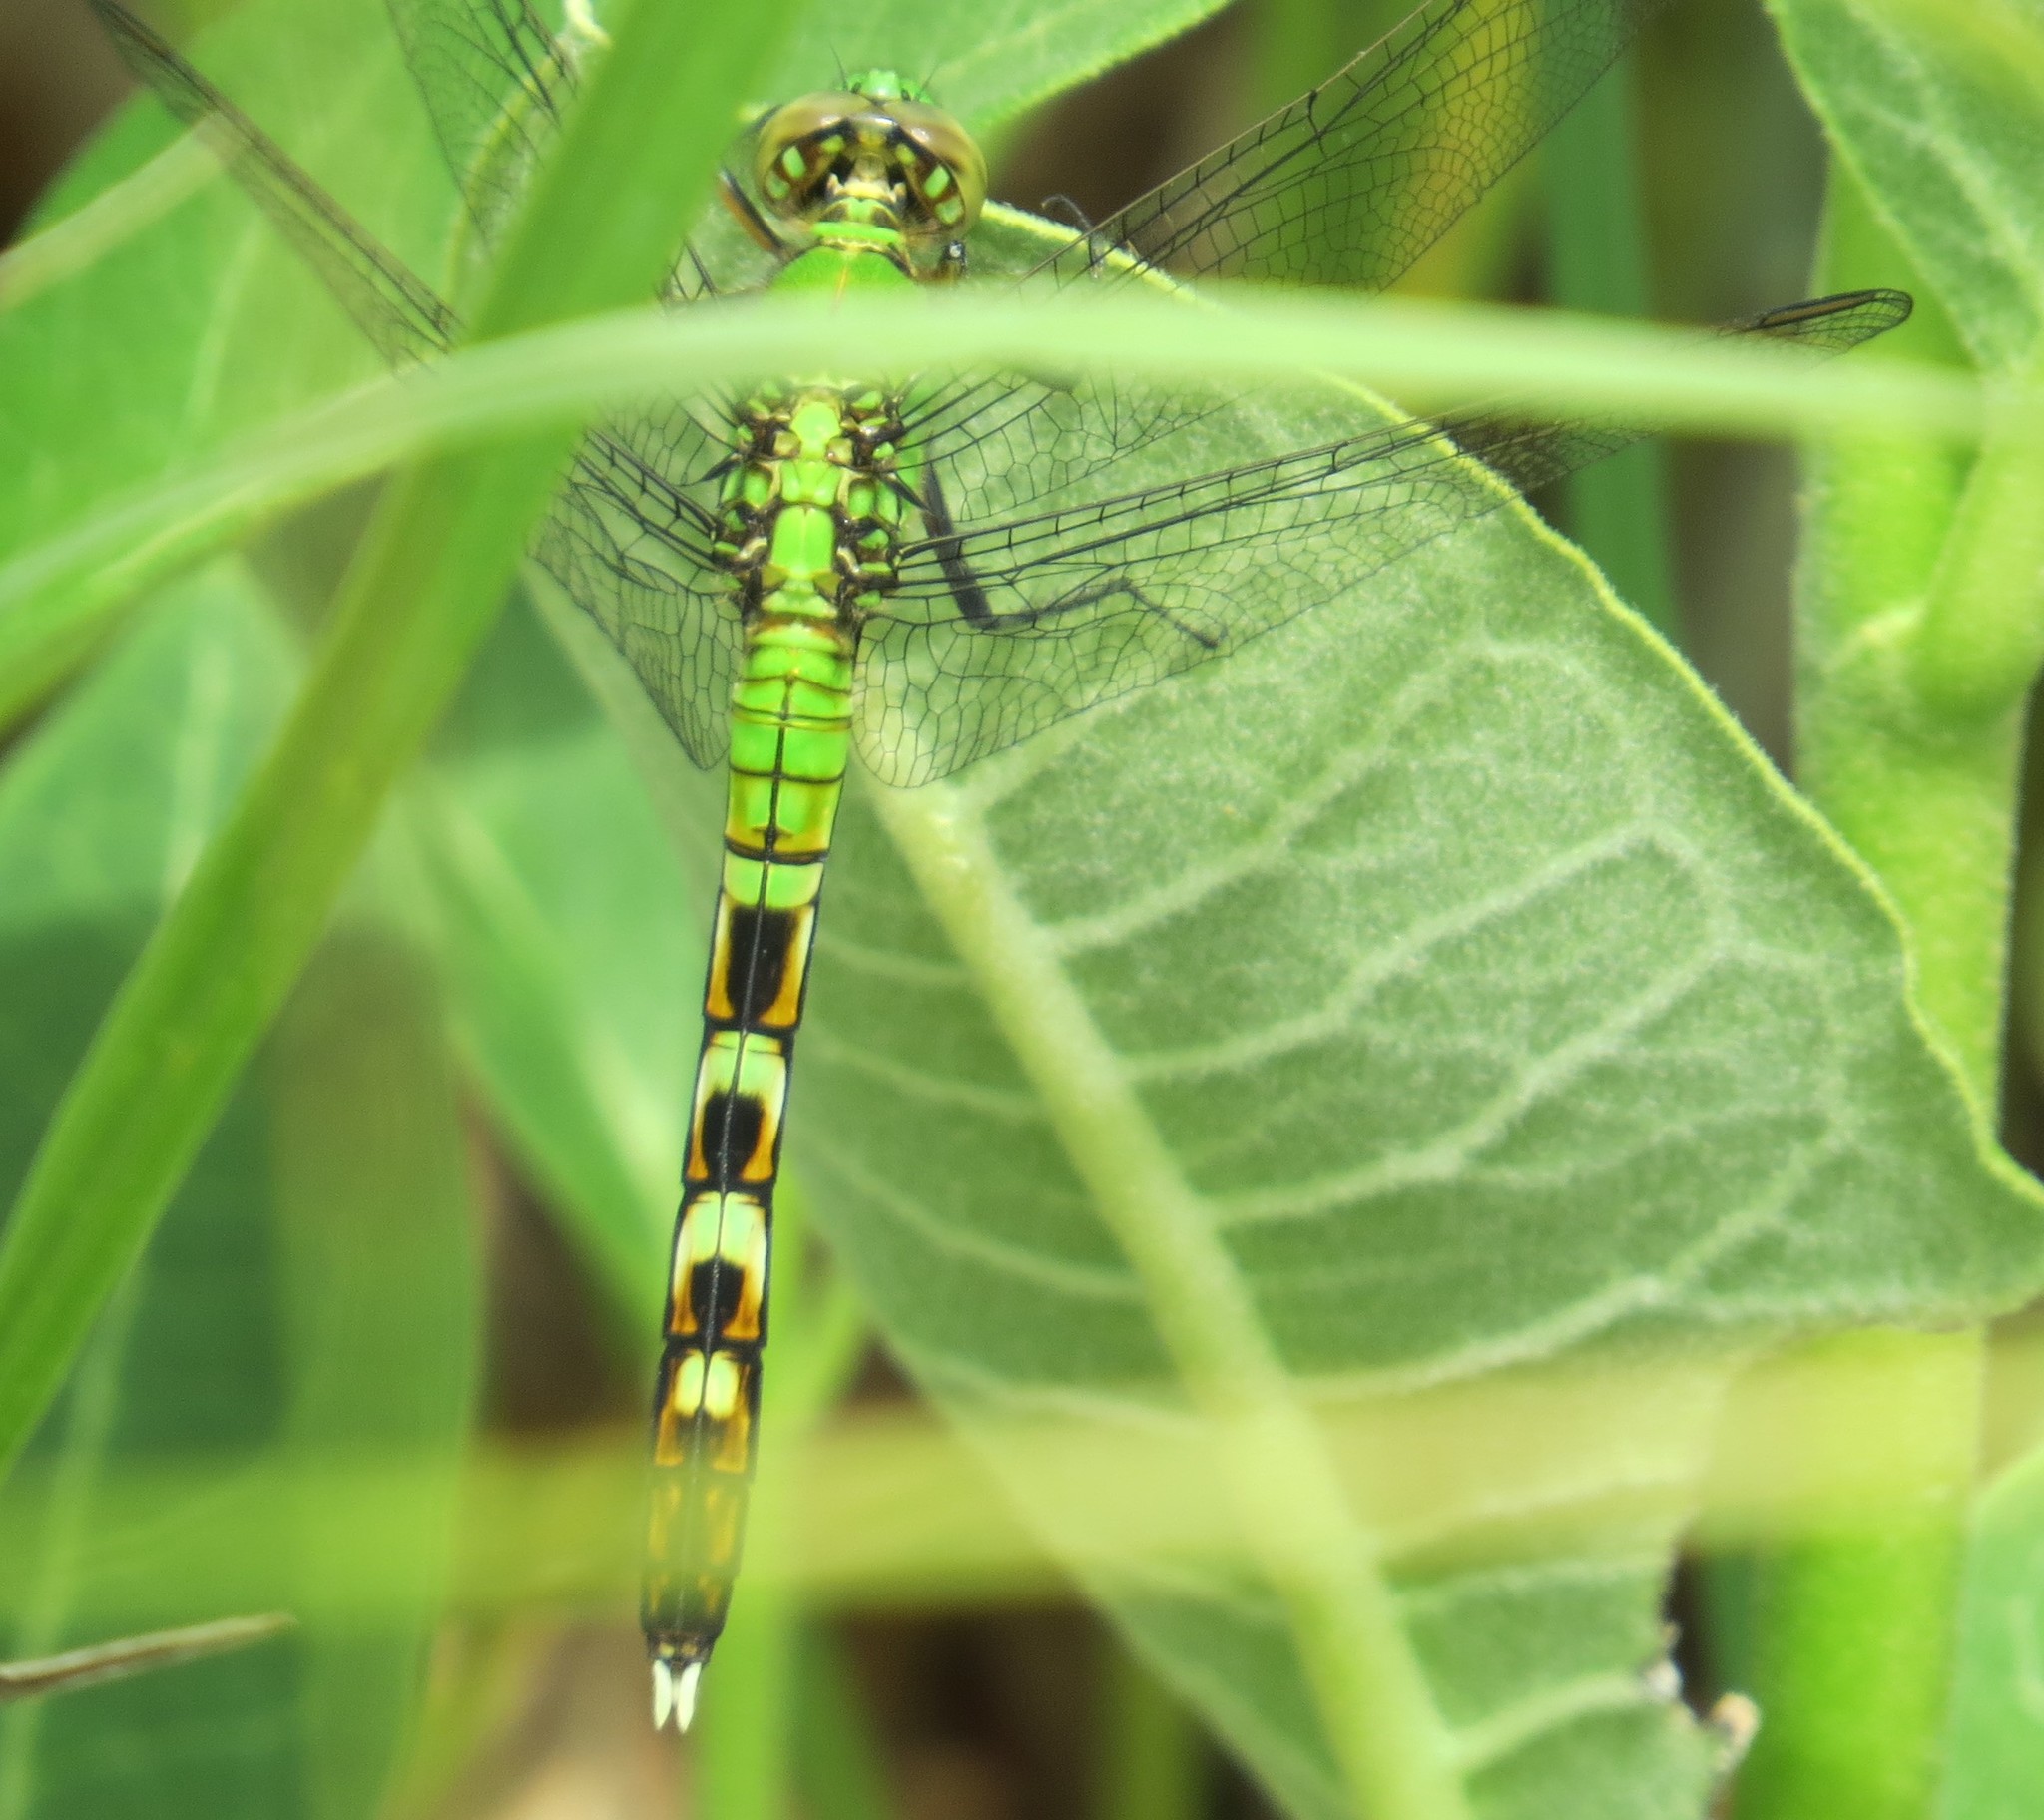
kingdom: Animalia
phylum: Arthropoda
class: Insecta
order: Odonata
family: Libellulidae
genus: Erythemis
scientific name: Erythemis simplicicollis
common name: Eastern pondhawk
